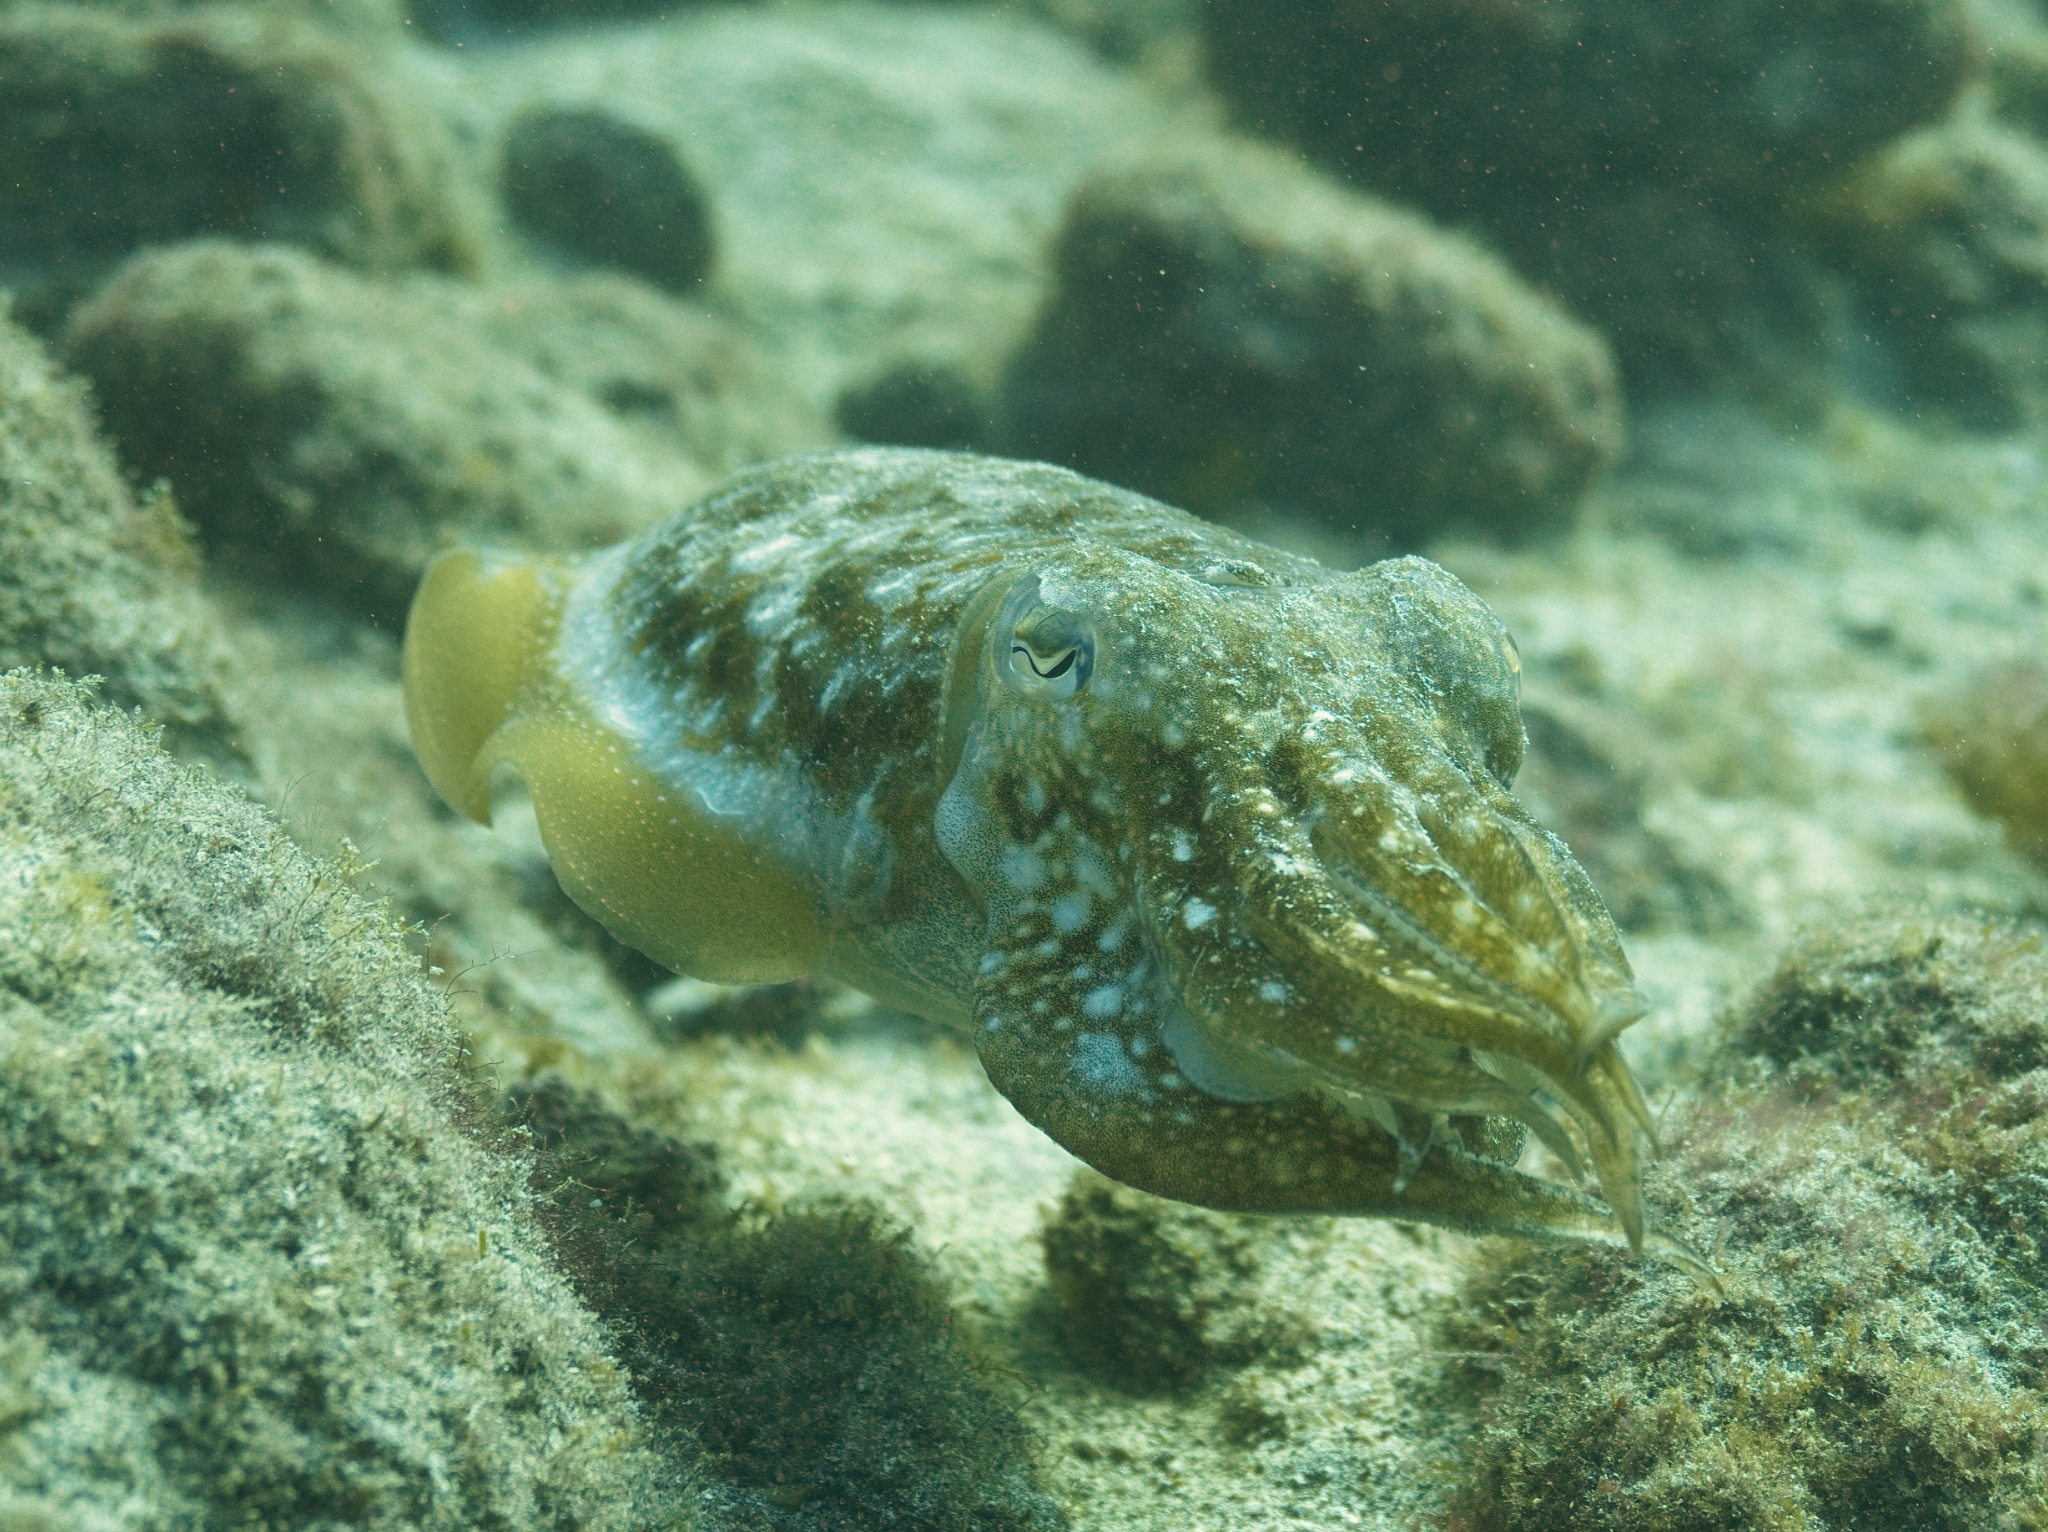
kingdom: Animalia
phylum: Mollusca
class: Cephalopoda
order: Sepiida
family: Sepiidae
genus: Sepia
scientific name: Sepia officinalis
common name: Common cuttlefish
